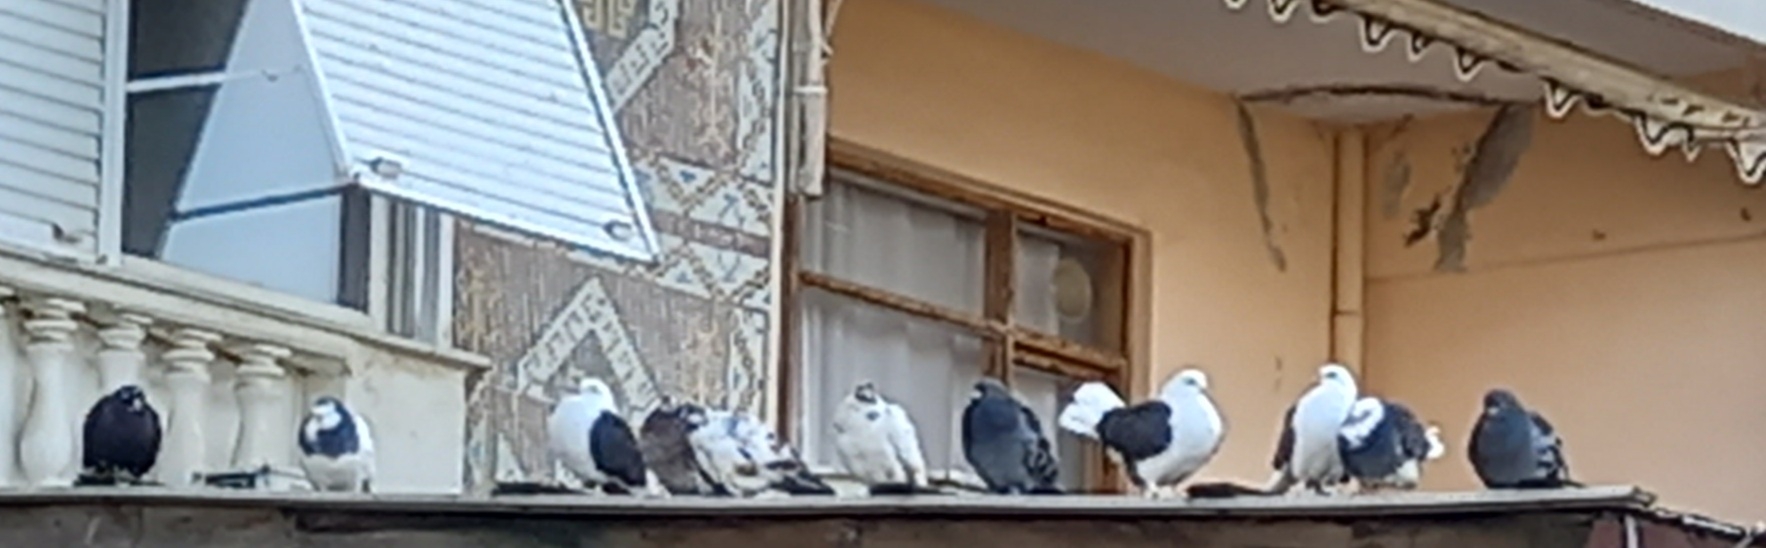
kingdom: Animalia
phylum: Chordata
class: Aves
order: Columbiformes
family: Columbidae
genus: Columba
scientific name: Columba livia
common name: Rock pigeon
